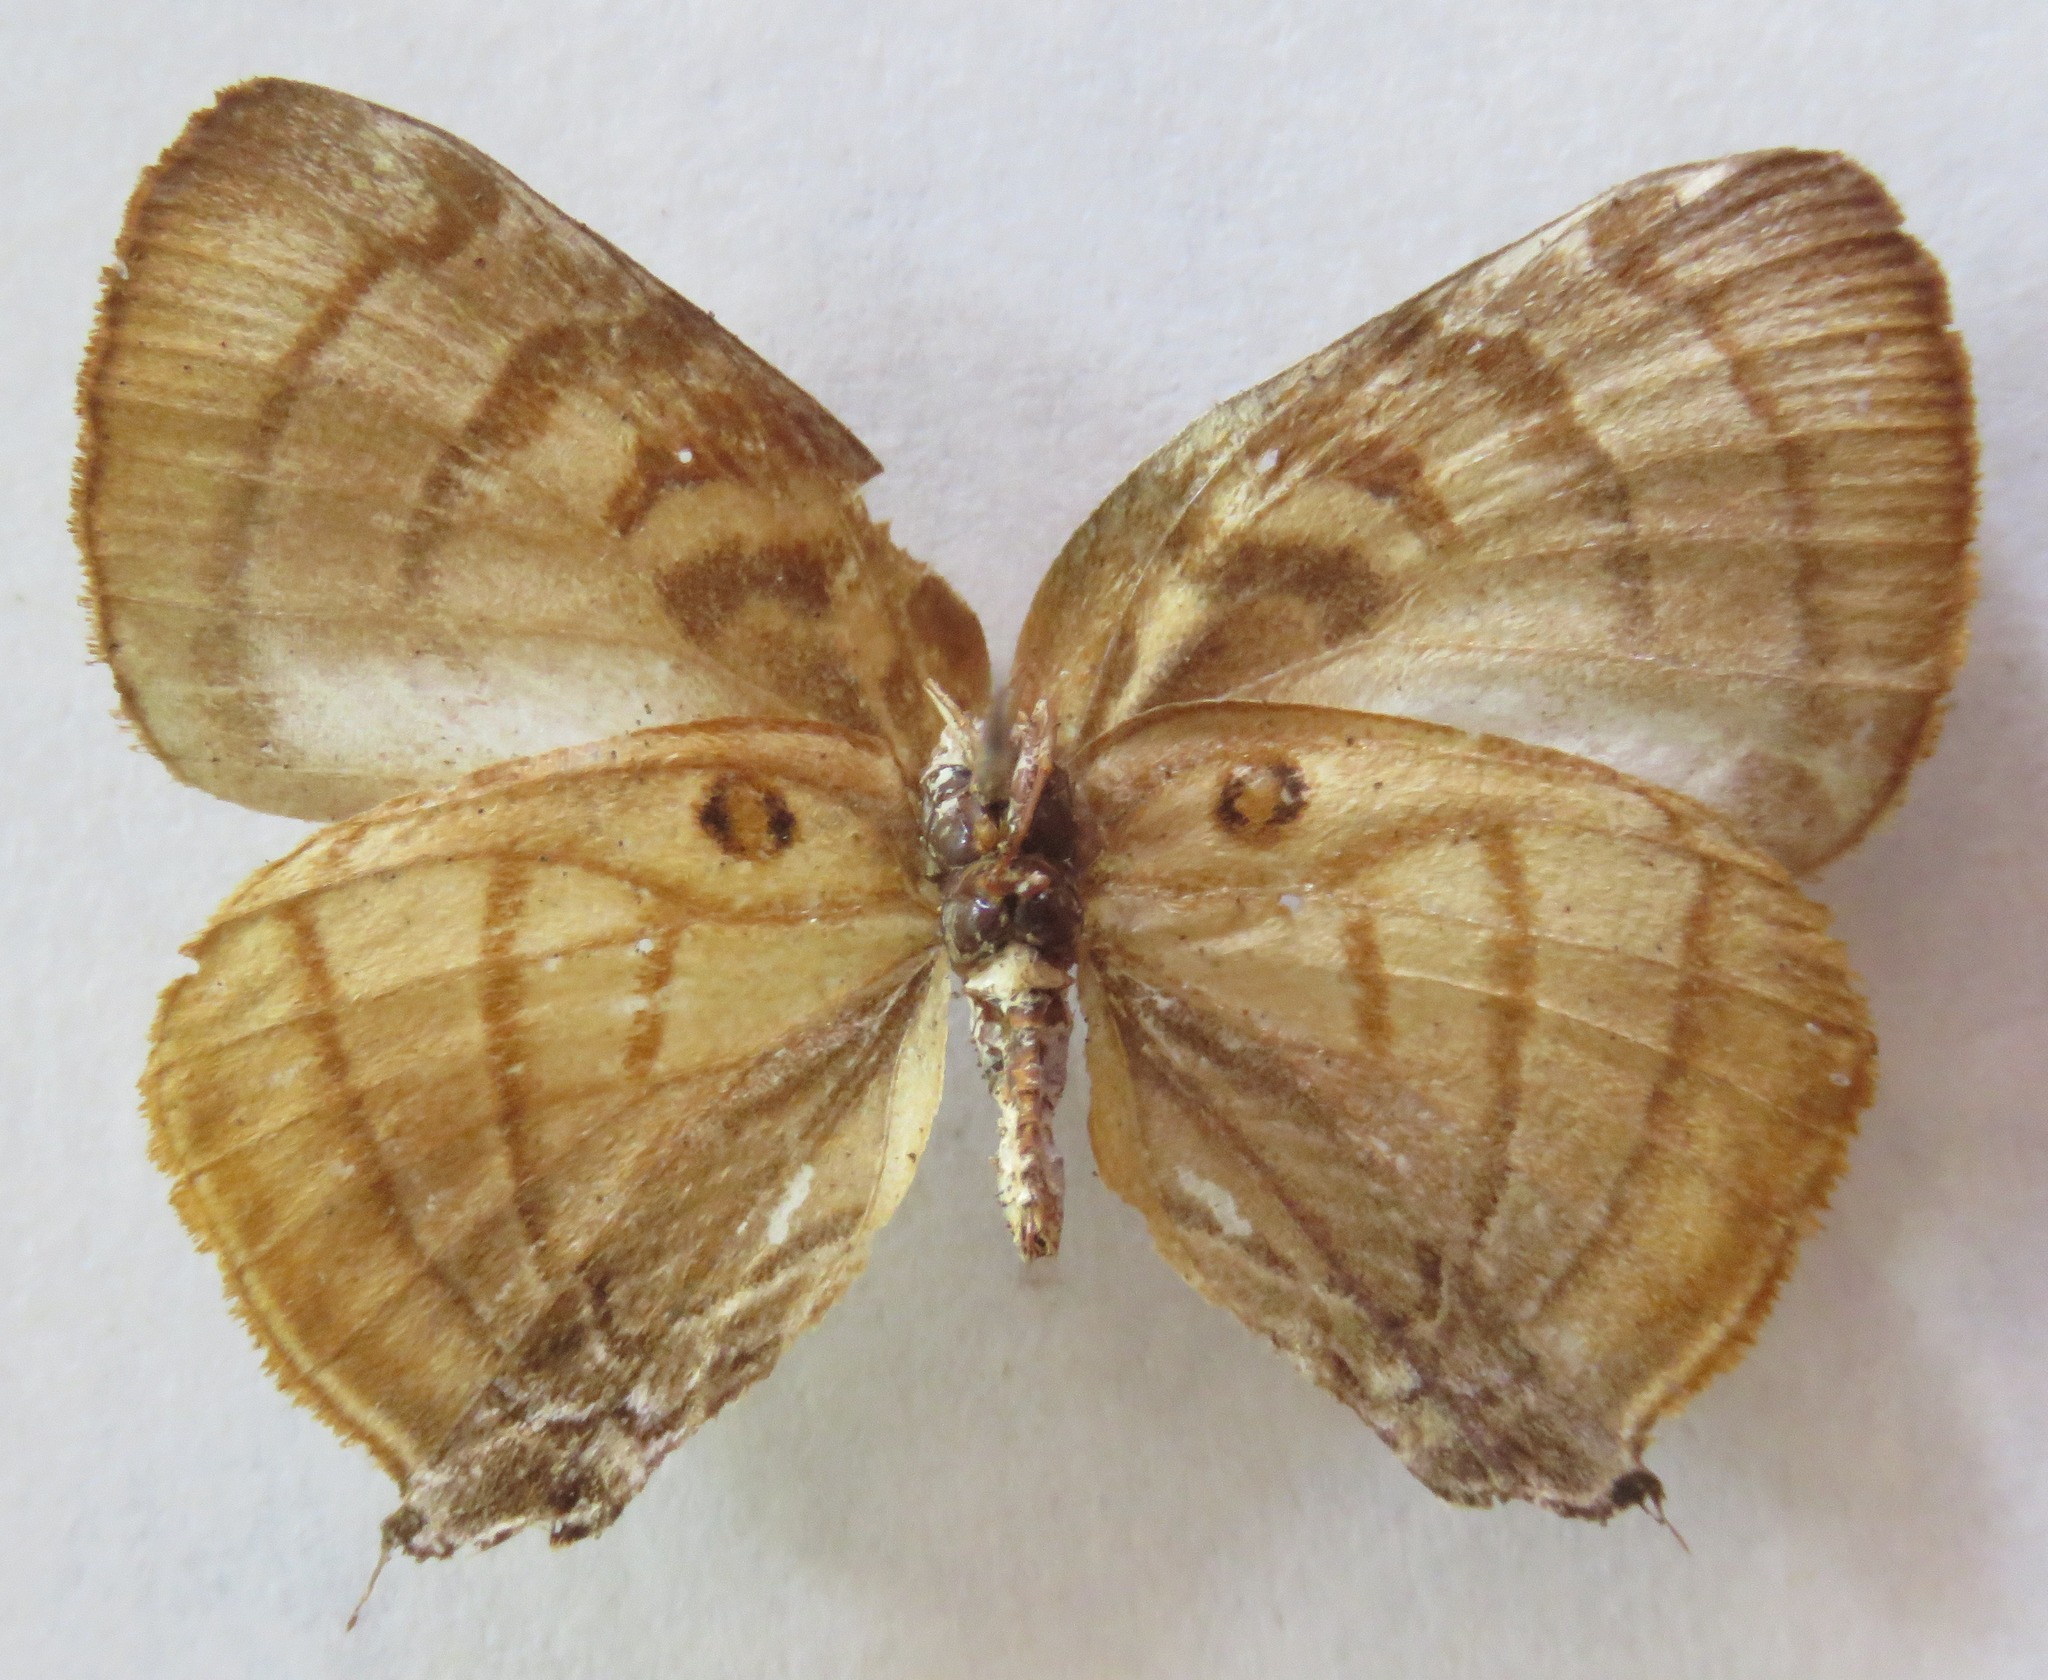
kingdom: Animalia
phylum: Arthropoda
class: Insecta
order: Lepidoptera
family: Lycaenidae
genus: Rekoa
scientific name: Rekoa meton
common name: Meton hairstreak
